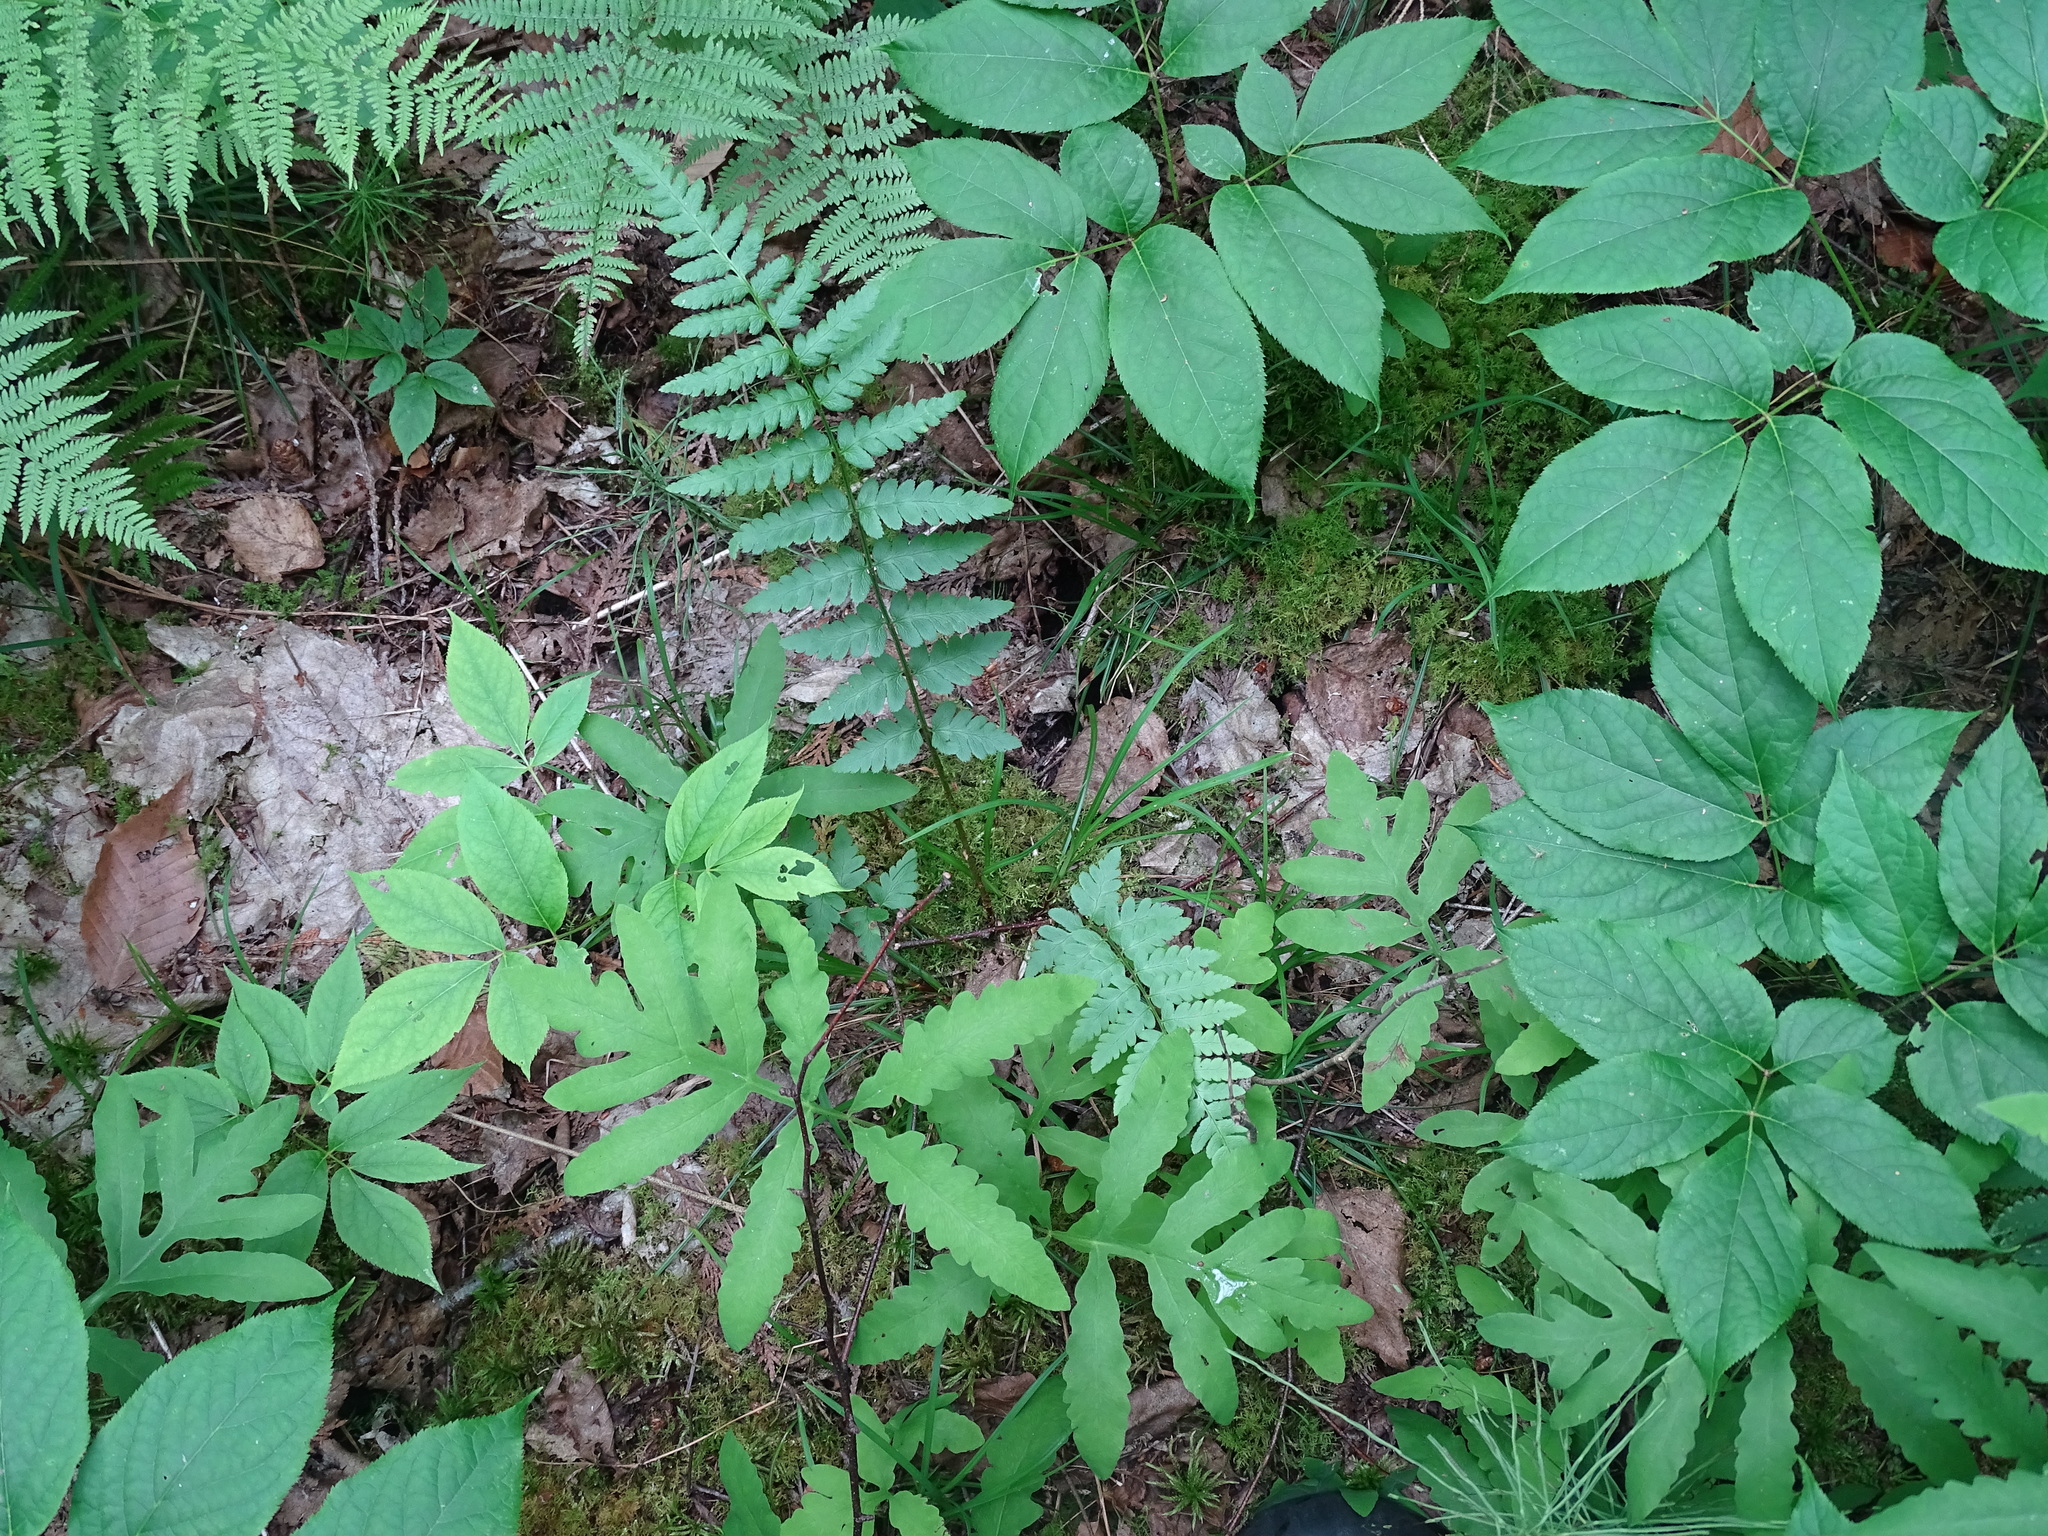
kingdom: Plantae
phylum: Tracheophyta
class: Polypodiopsida
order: Polypodiales
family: Dryopteridaceae
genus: Dryopteris
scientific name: Dryopteris cristata
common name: Crested wood fern
